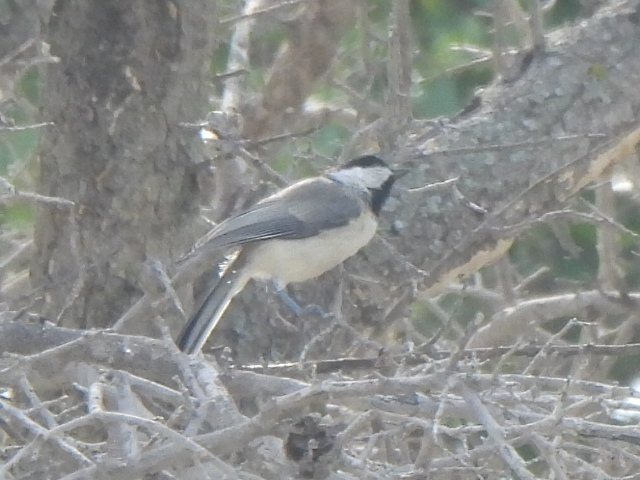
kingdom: Animalia
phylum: Chordata
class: Aves
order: Passeriformes
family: Paridae
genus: Poecile
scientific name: Poecile carolinensis
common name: Carolina chickadee
